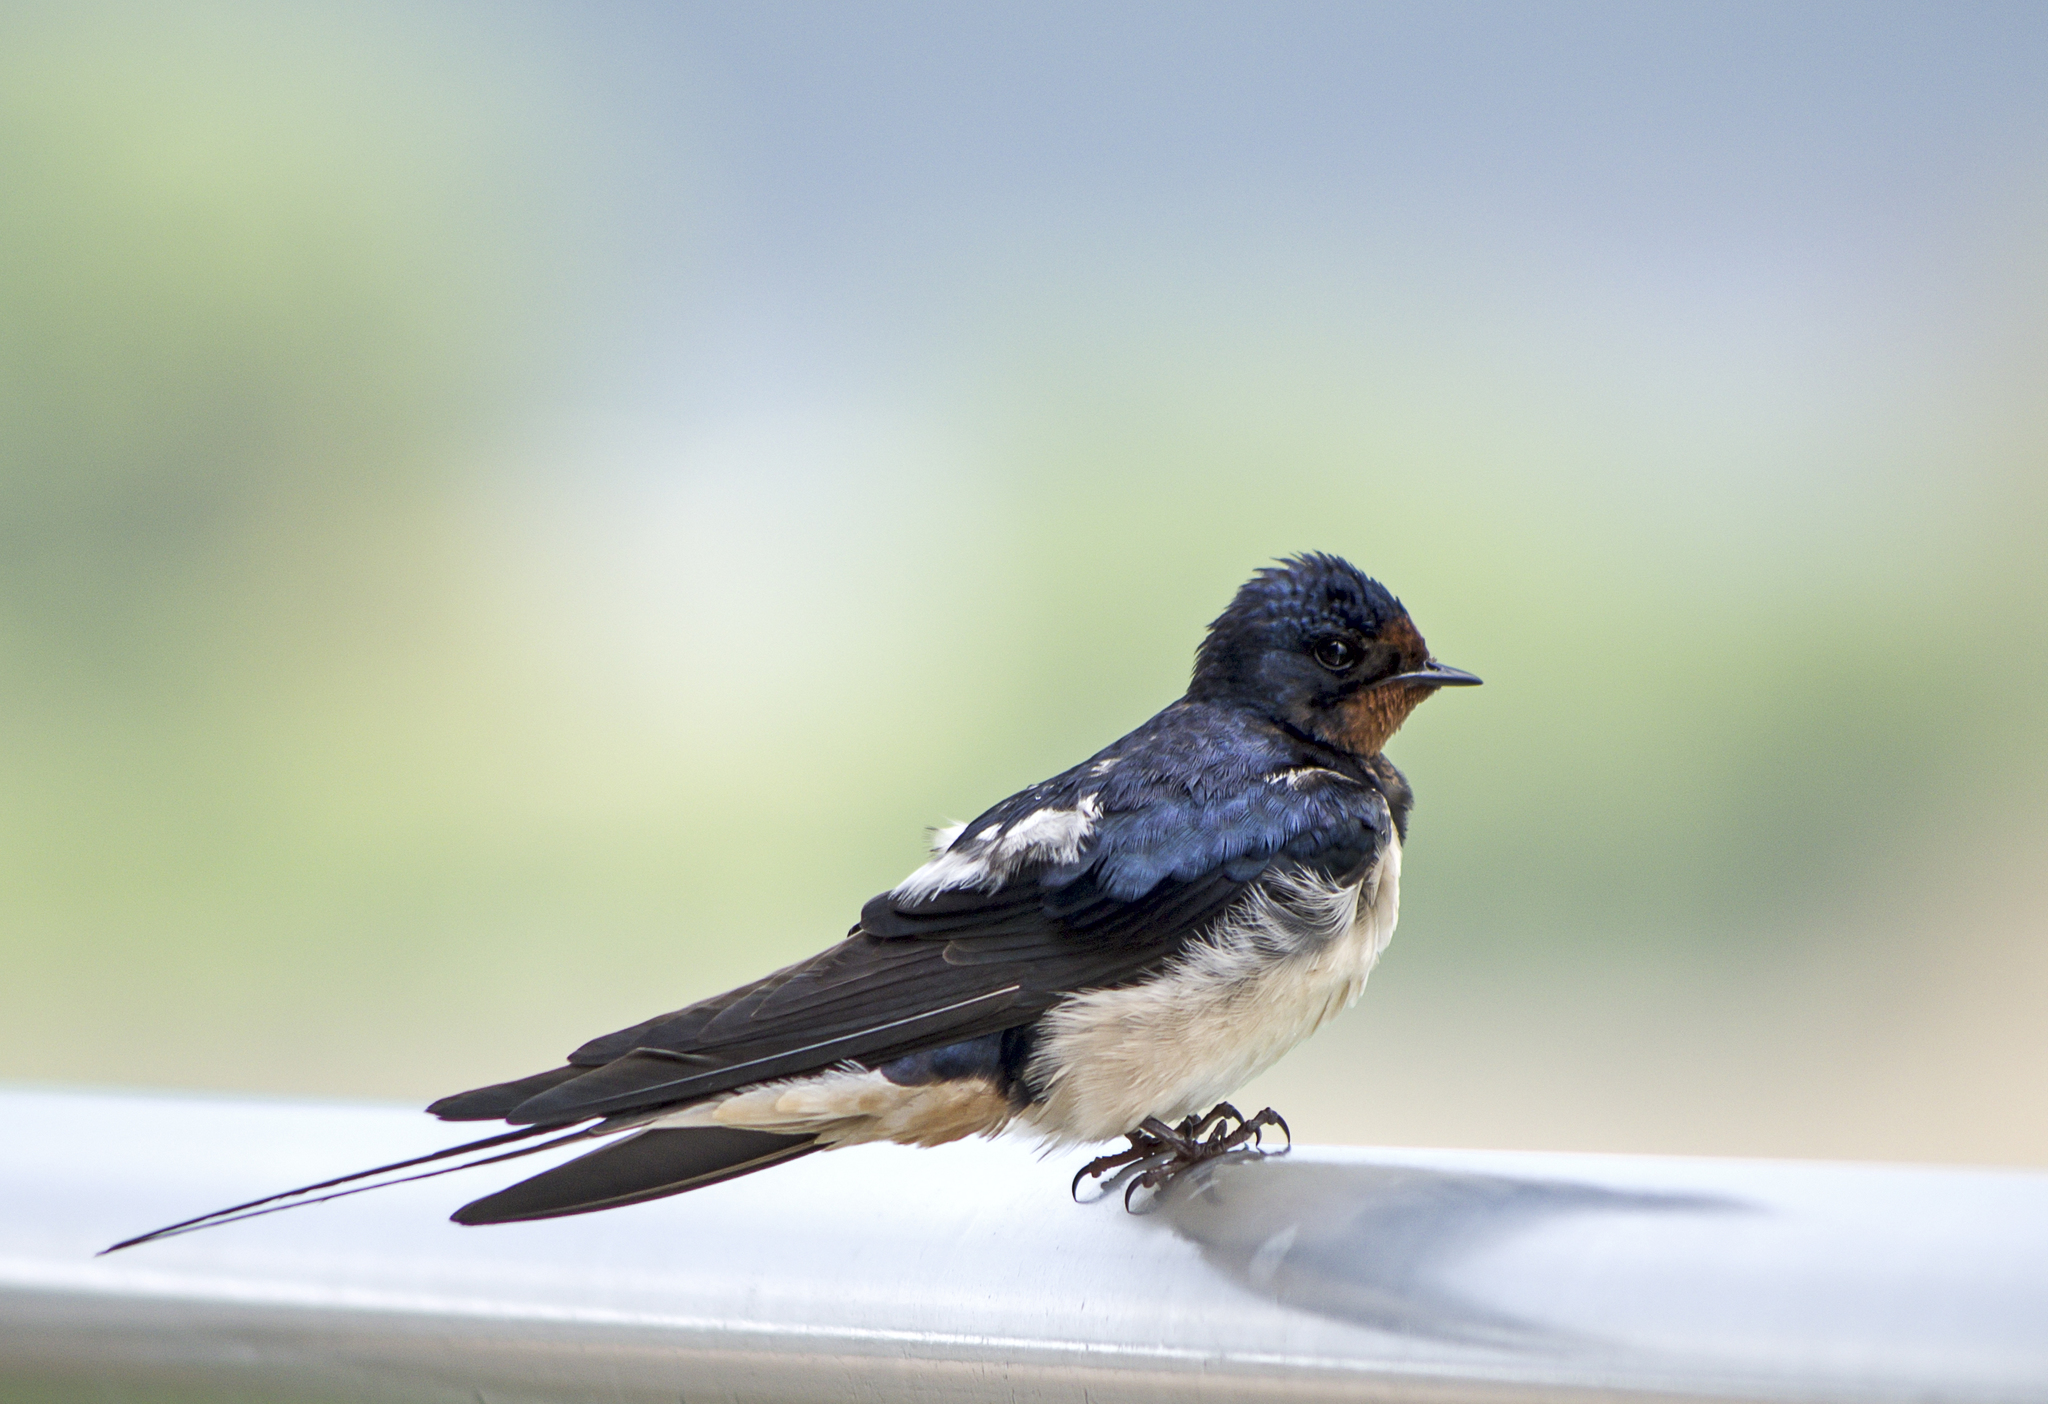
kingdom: Animalia
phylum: Chordata
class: Aves
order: Passeriformes
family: Hirundinidae
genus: Hirundo
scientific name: Hirundo rustica
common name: Barn swallow
